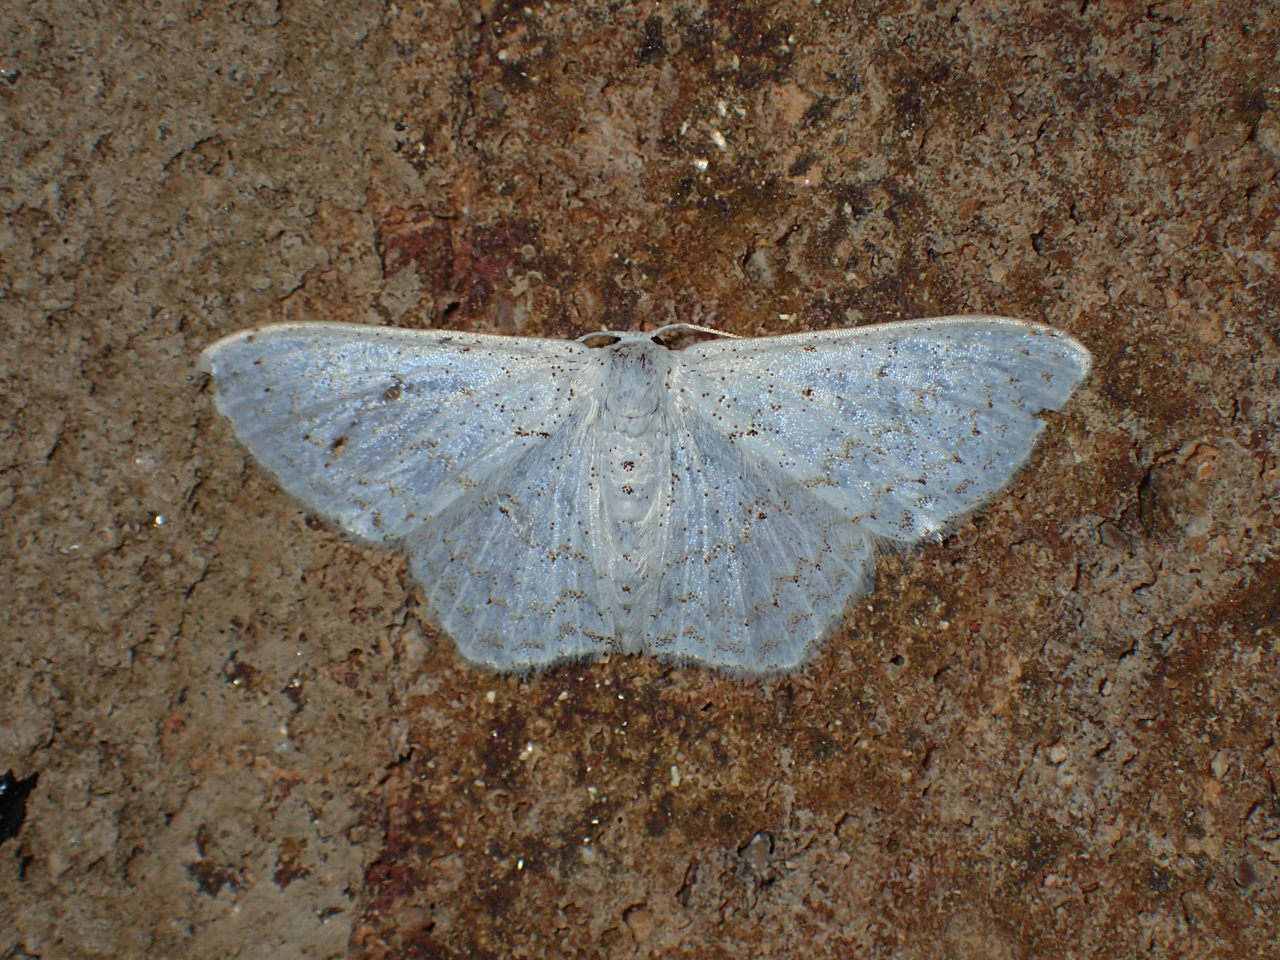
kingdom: Animalia
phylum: Arthropoda
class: Insecta
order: Lepidoptera
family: Geometridae
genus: Idaea
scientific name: Idaea tacturata
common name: Dot-lined wave
